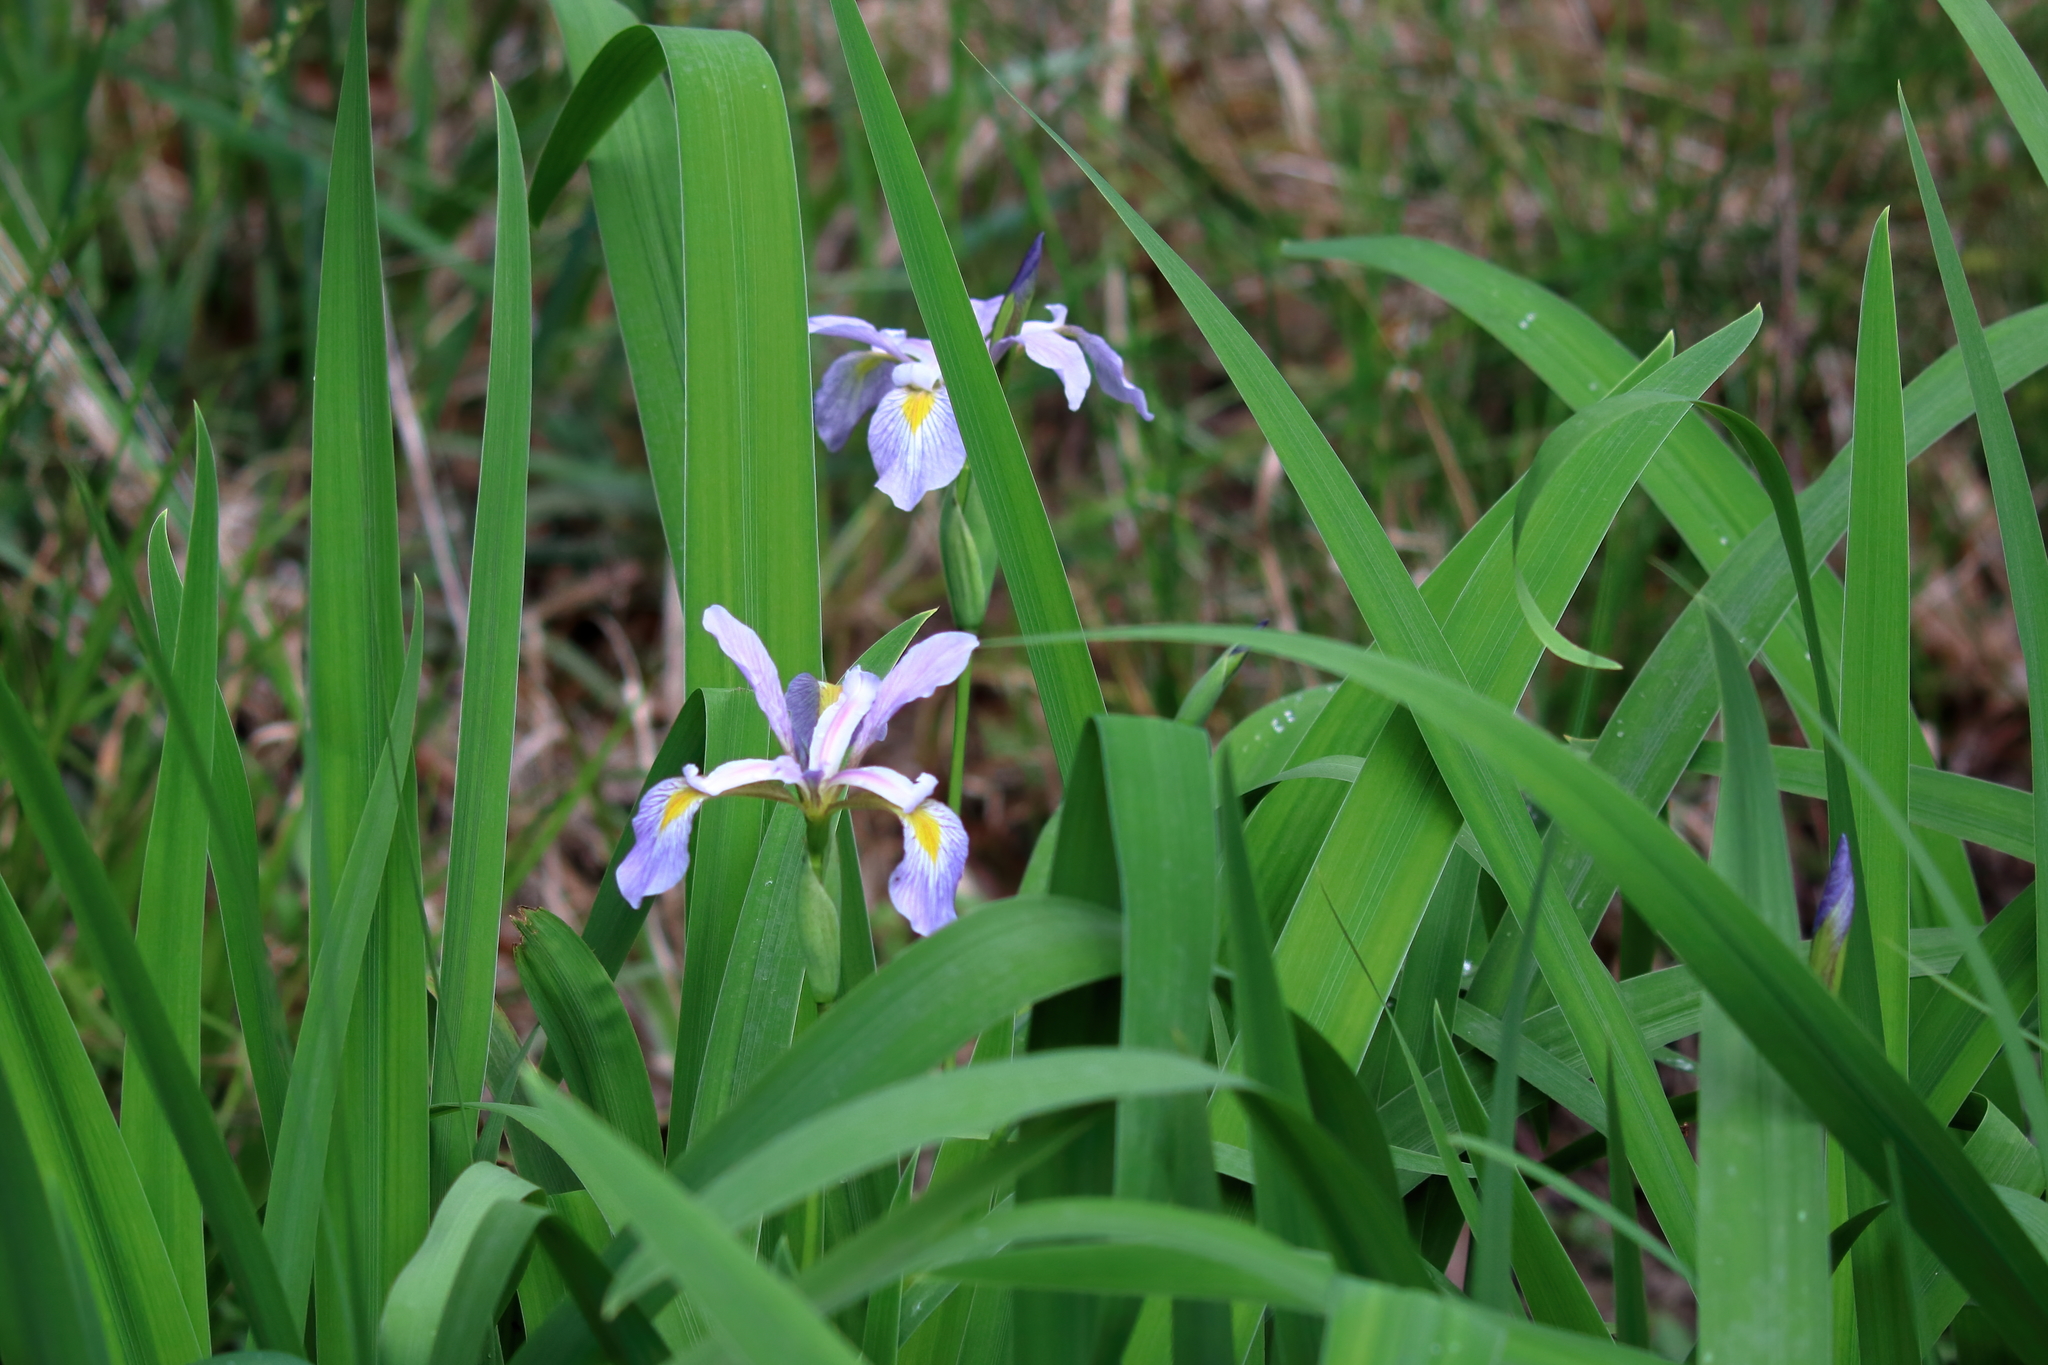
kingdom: Plantae
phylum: Tracheophyta
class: Liliopsida
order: Asparagales
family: Iridaceae
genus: Iris
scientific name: Iris virginica
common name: Southern blue flag
